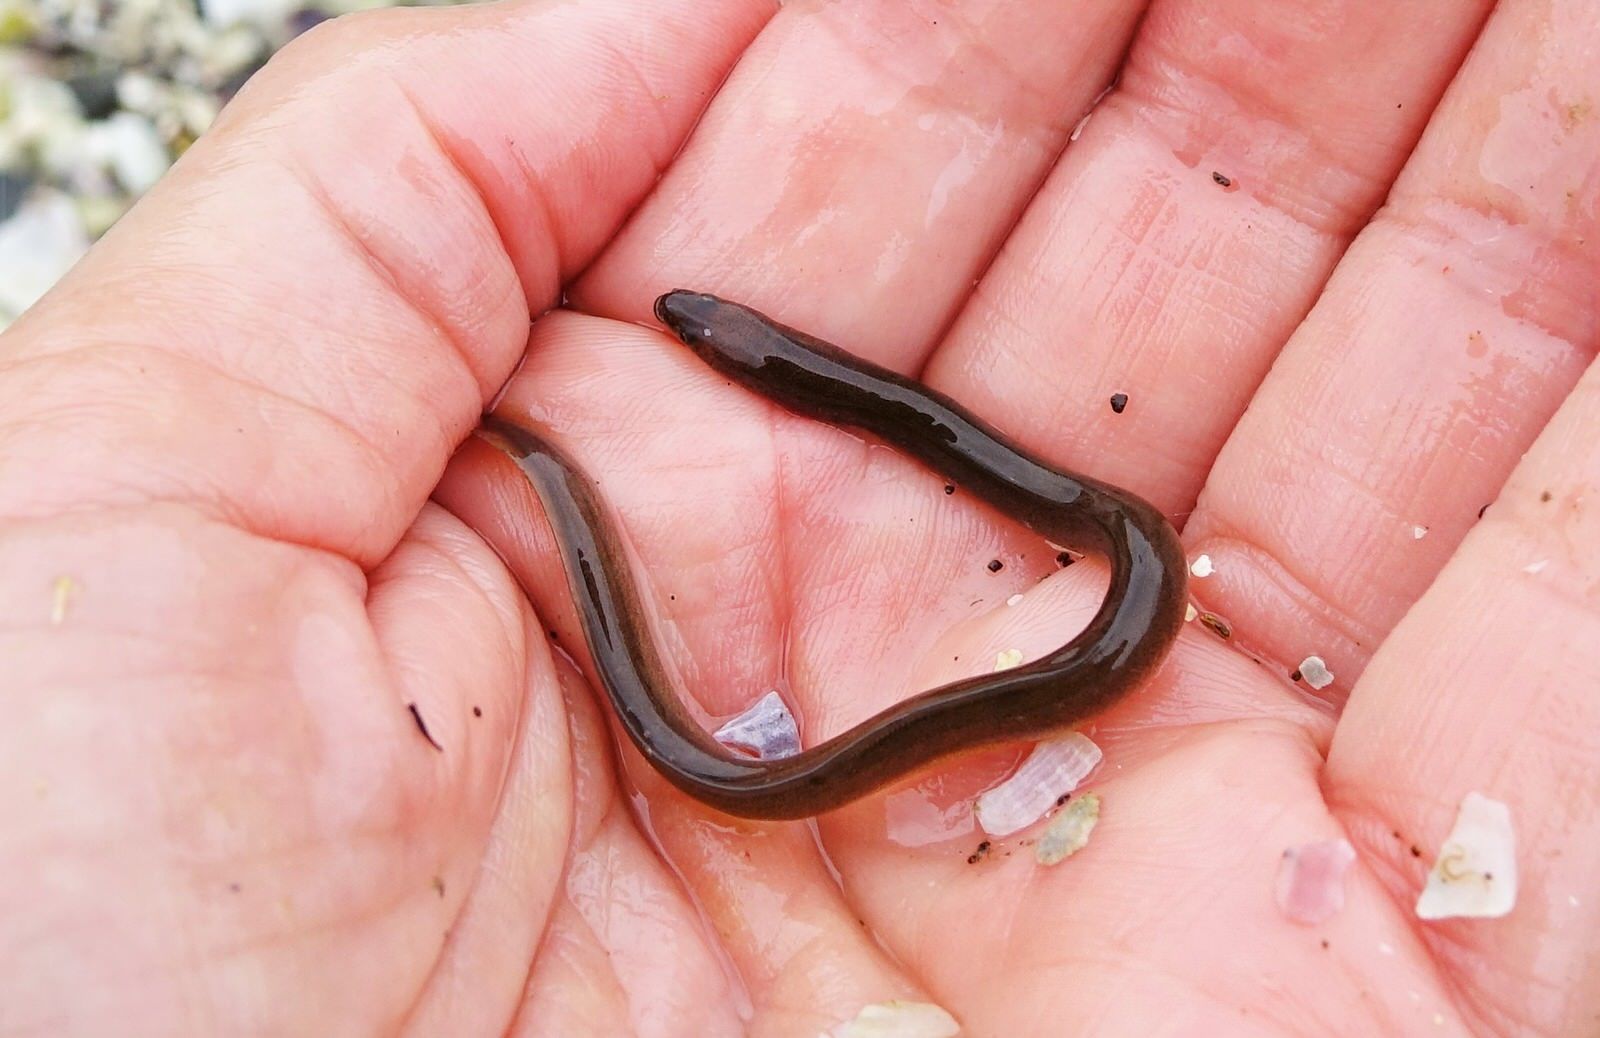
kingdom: Animalia
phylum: Chordata
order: Anguilliformes
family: Anguillidae
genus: Anguilla
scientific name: Anguilla australis
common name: Shortfin eel
